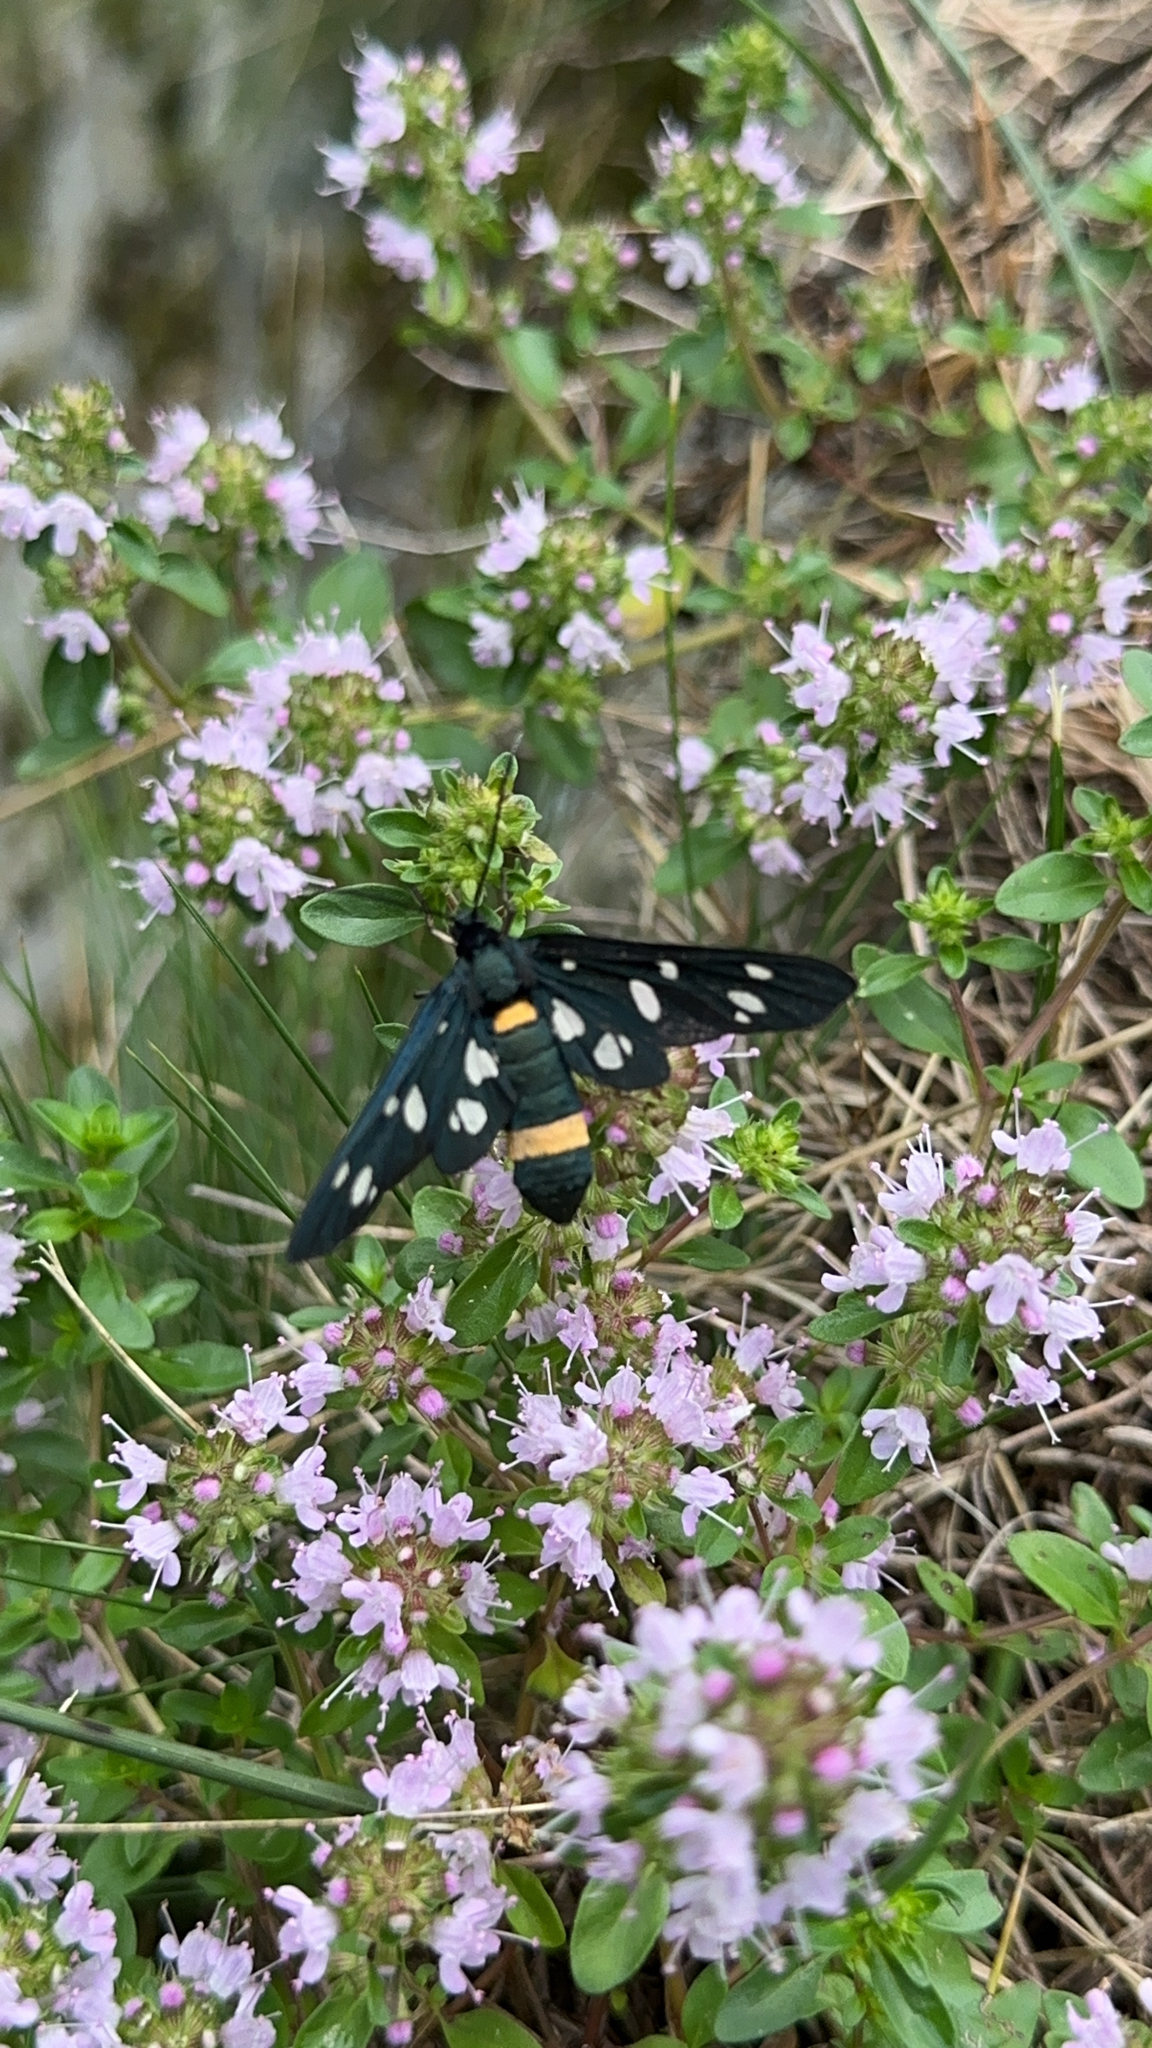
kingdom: Animalia
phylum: Arthropoda
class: Insecta
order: Lepidoptera
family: Erebidae
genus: Amata
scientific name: Amata phegea
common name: Nine-spotted
